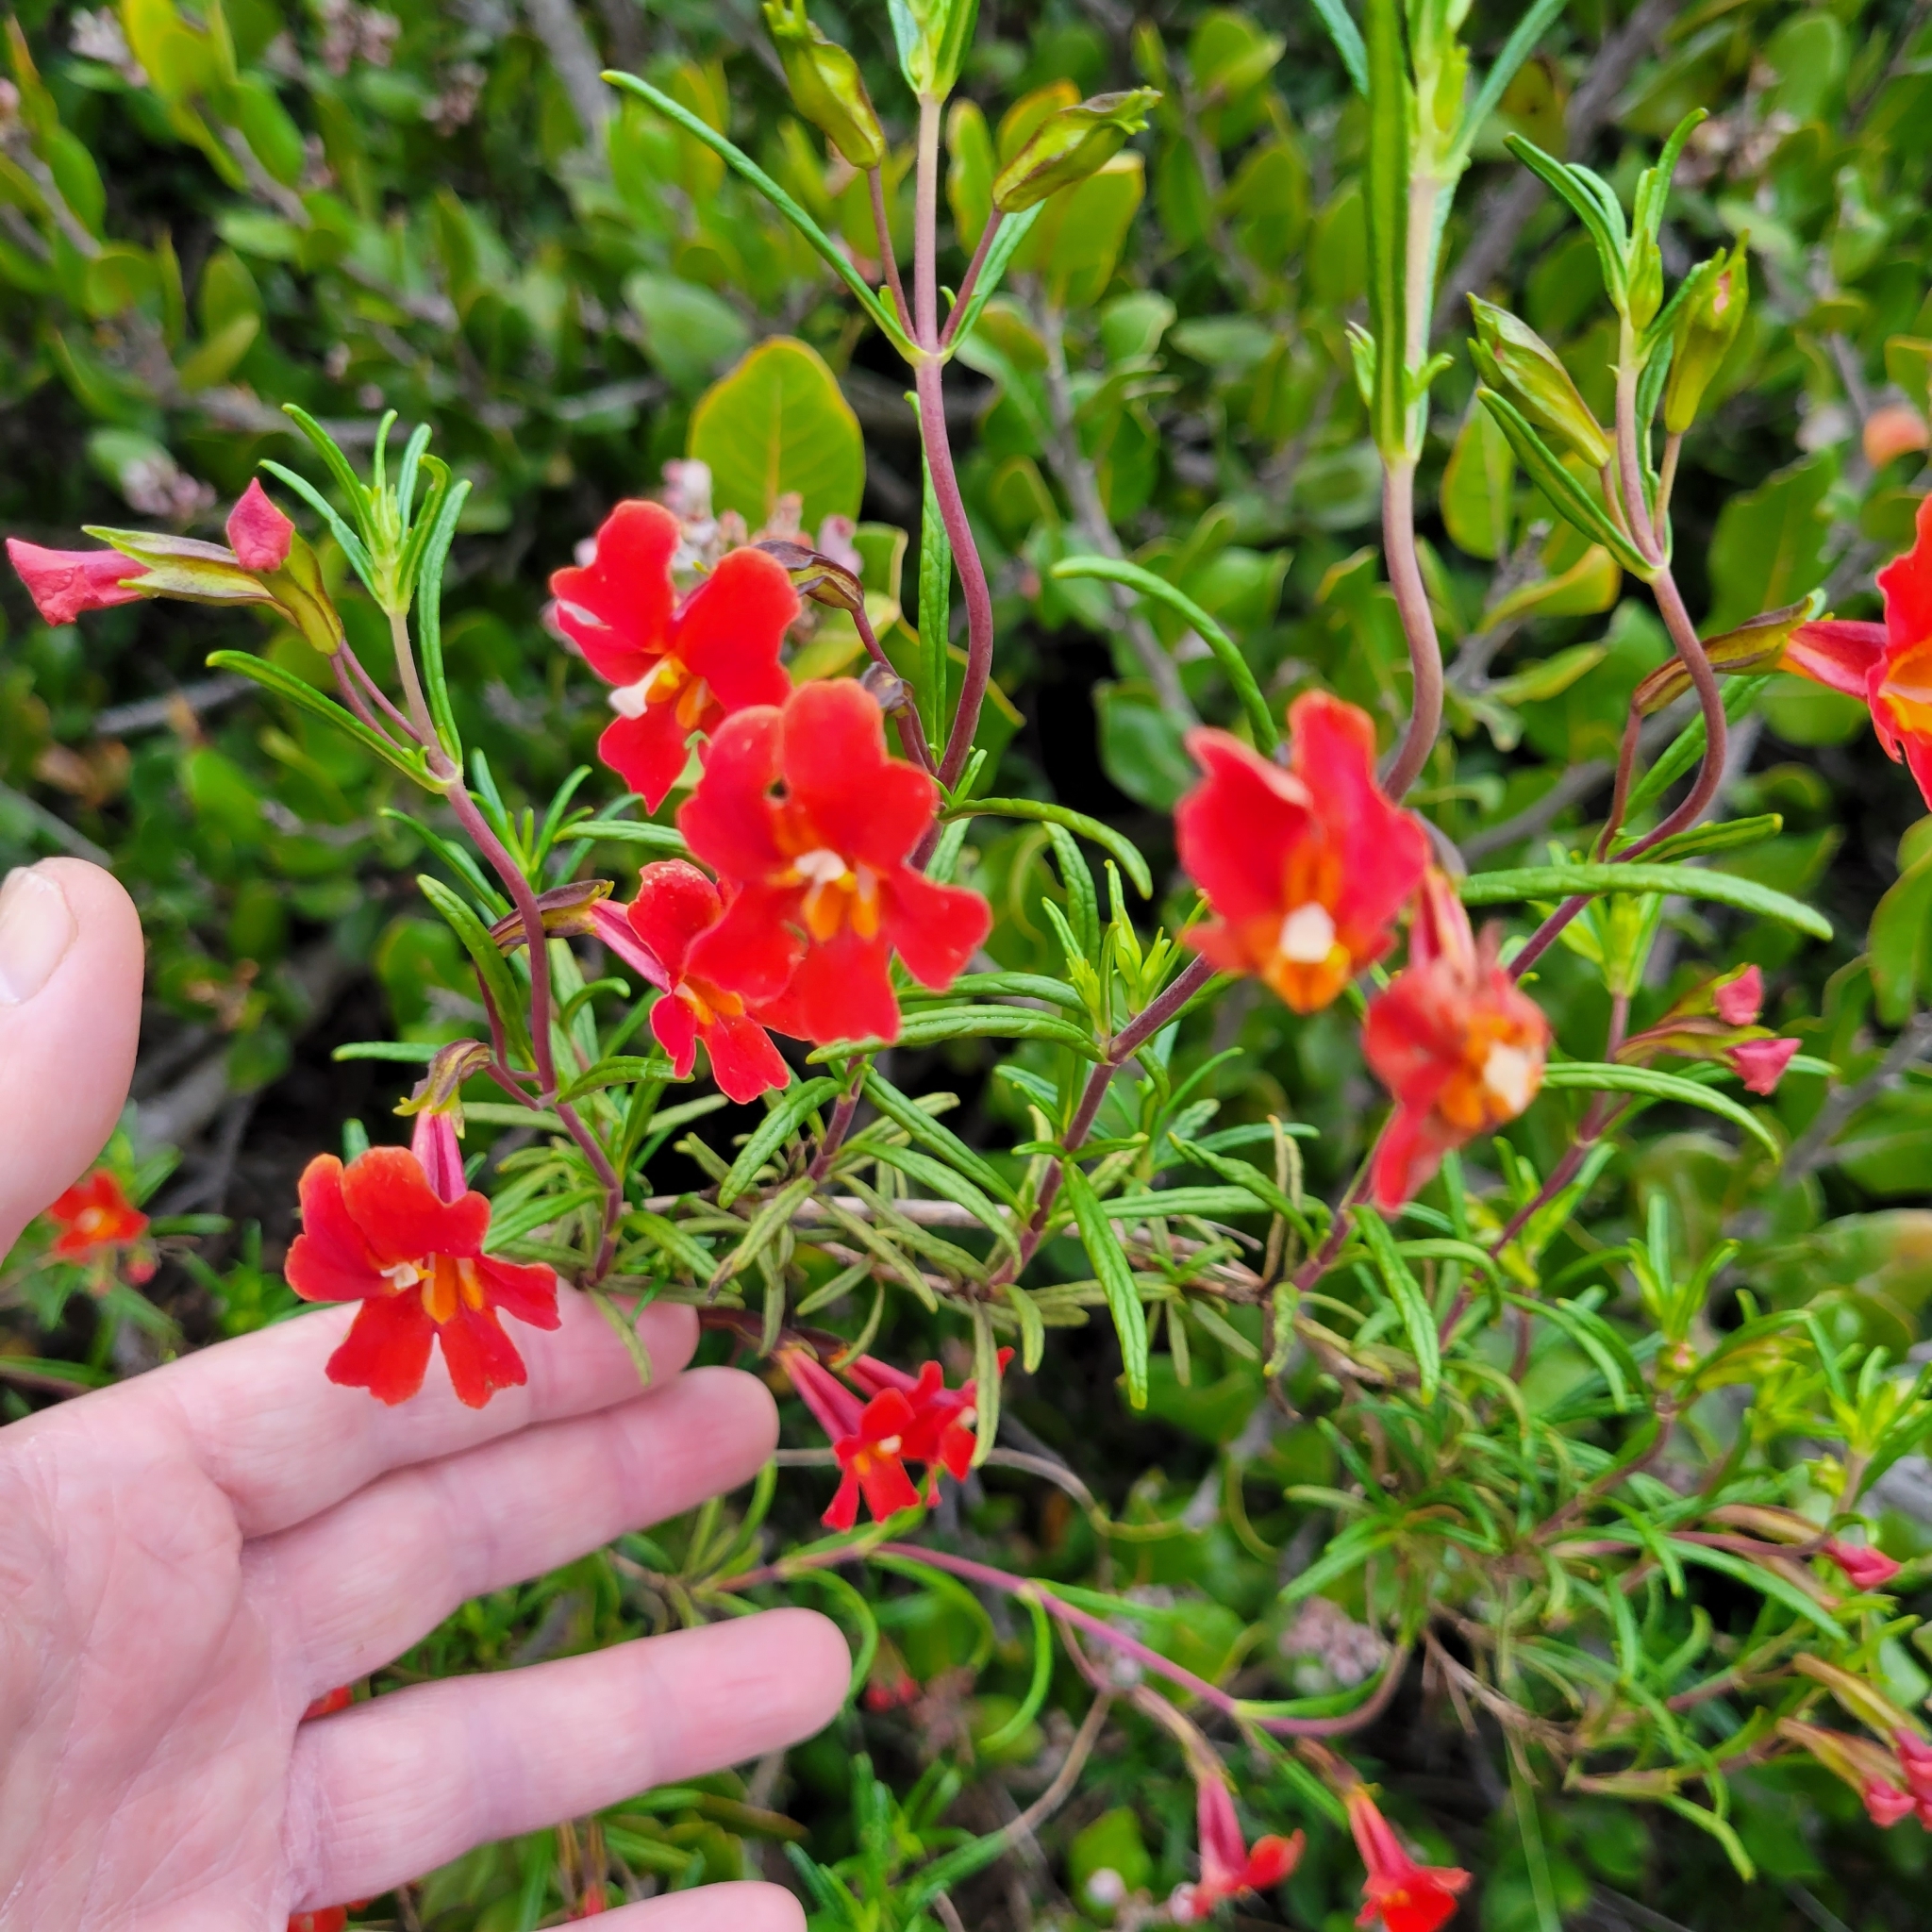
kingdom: Plantae
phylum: Tracheophyta
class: Magnoliopsida
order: Lamiales
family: Phrymaceae
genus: Diplacus
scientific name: Diplacus puniceus
